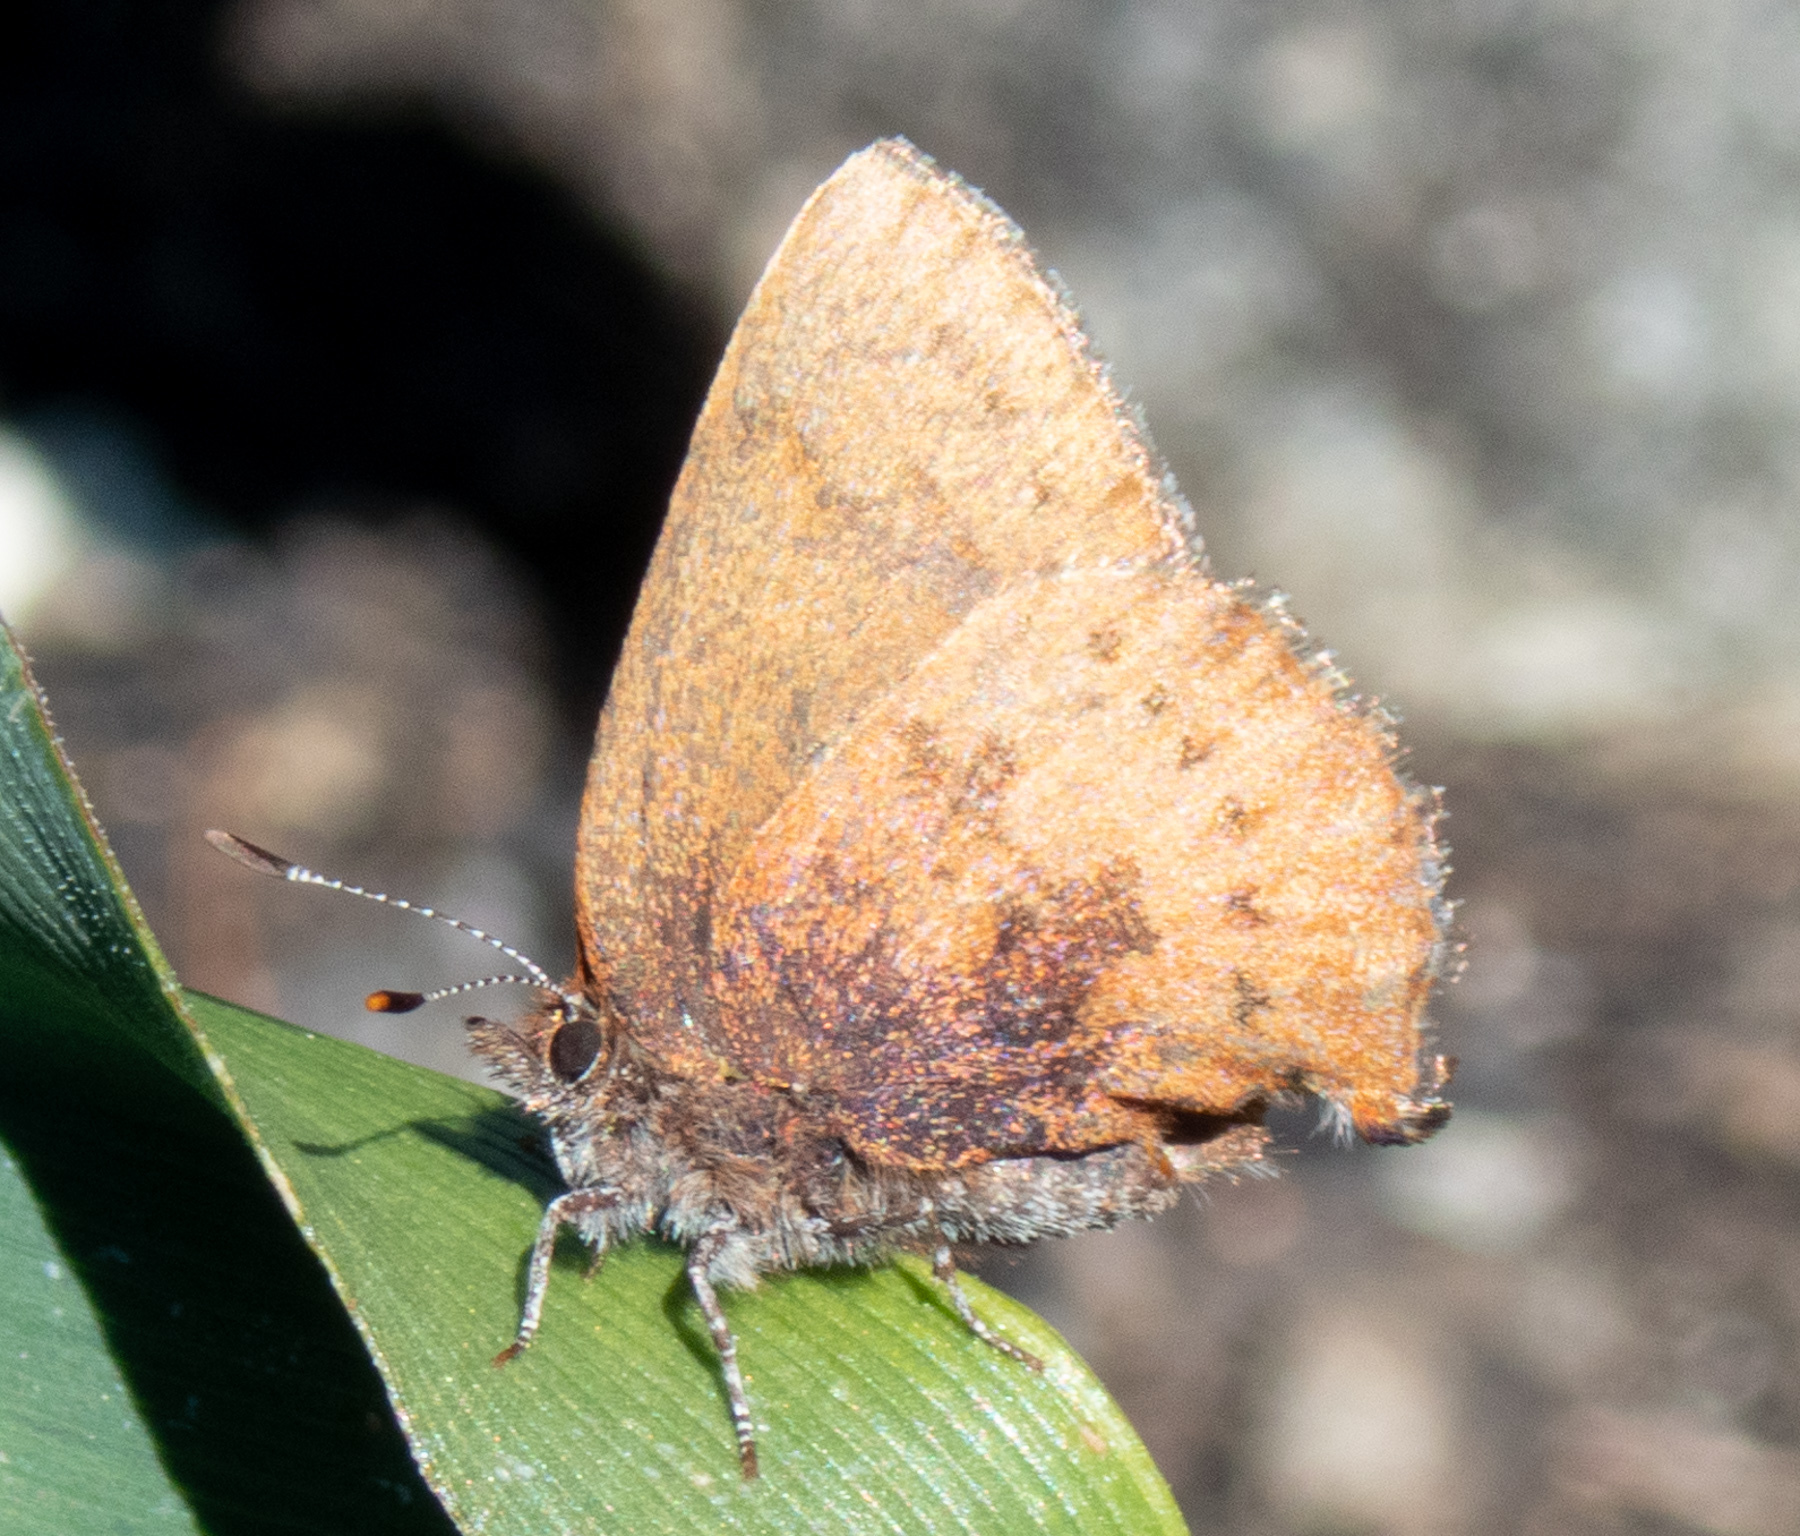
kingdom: Animalia
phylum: Arthropoda
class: Insecta
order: Lepidoptera
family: Lycaenidae
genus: Incisalia
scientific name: Incisalia irioides
